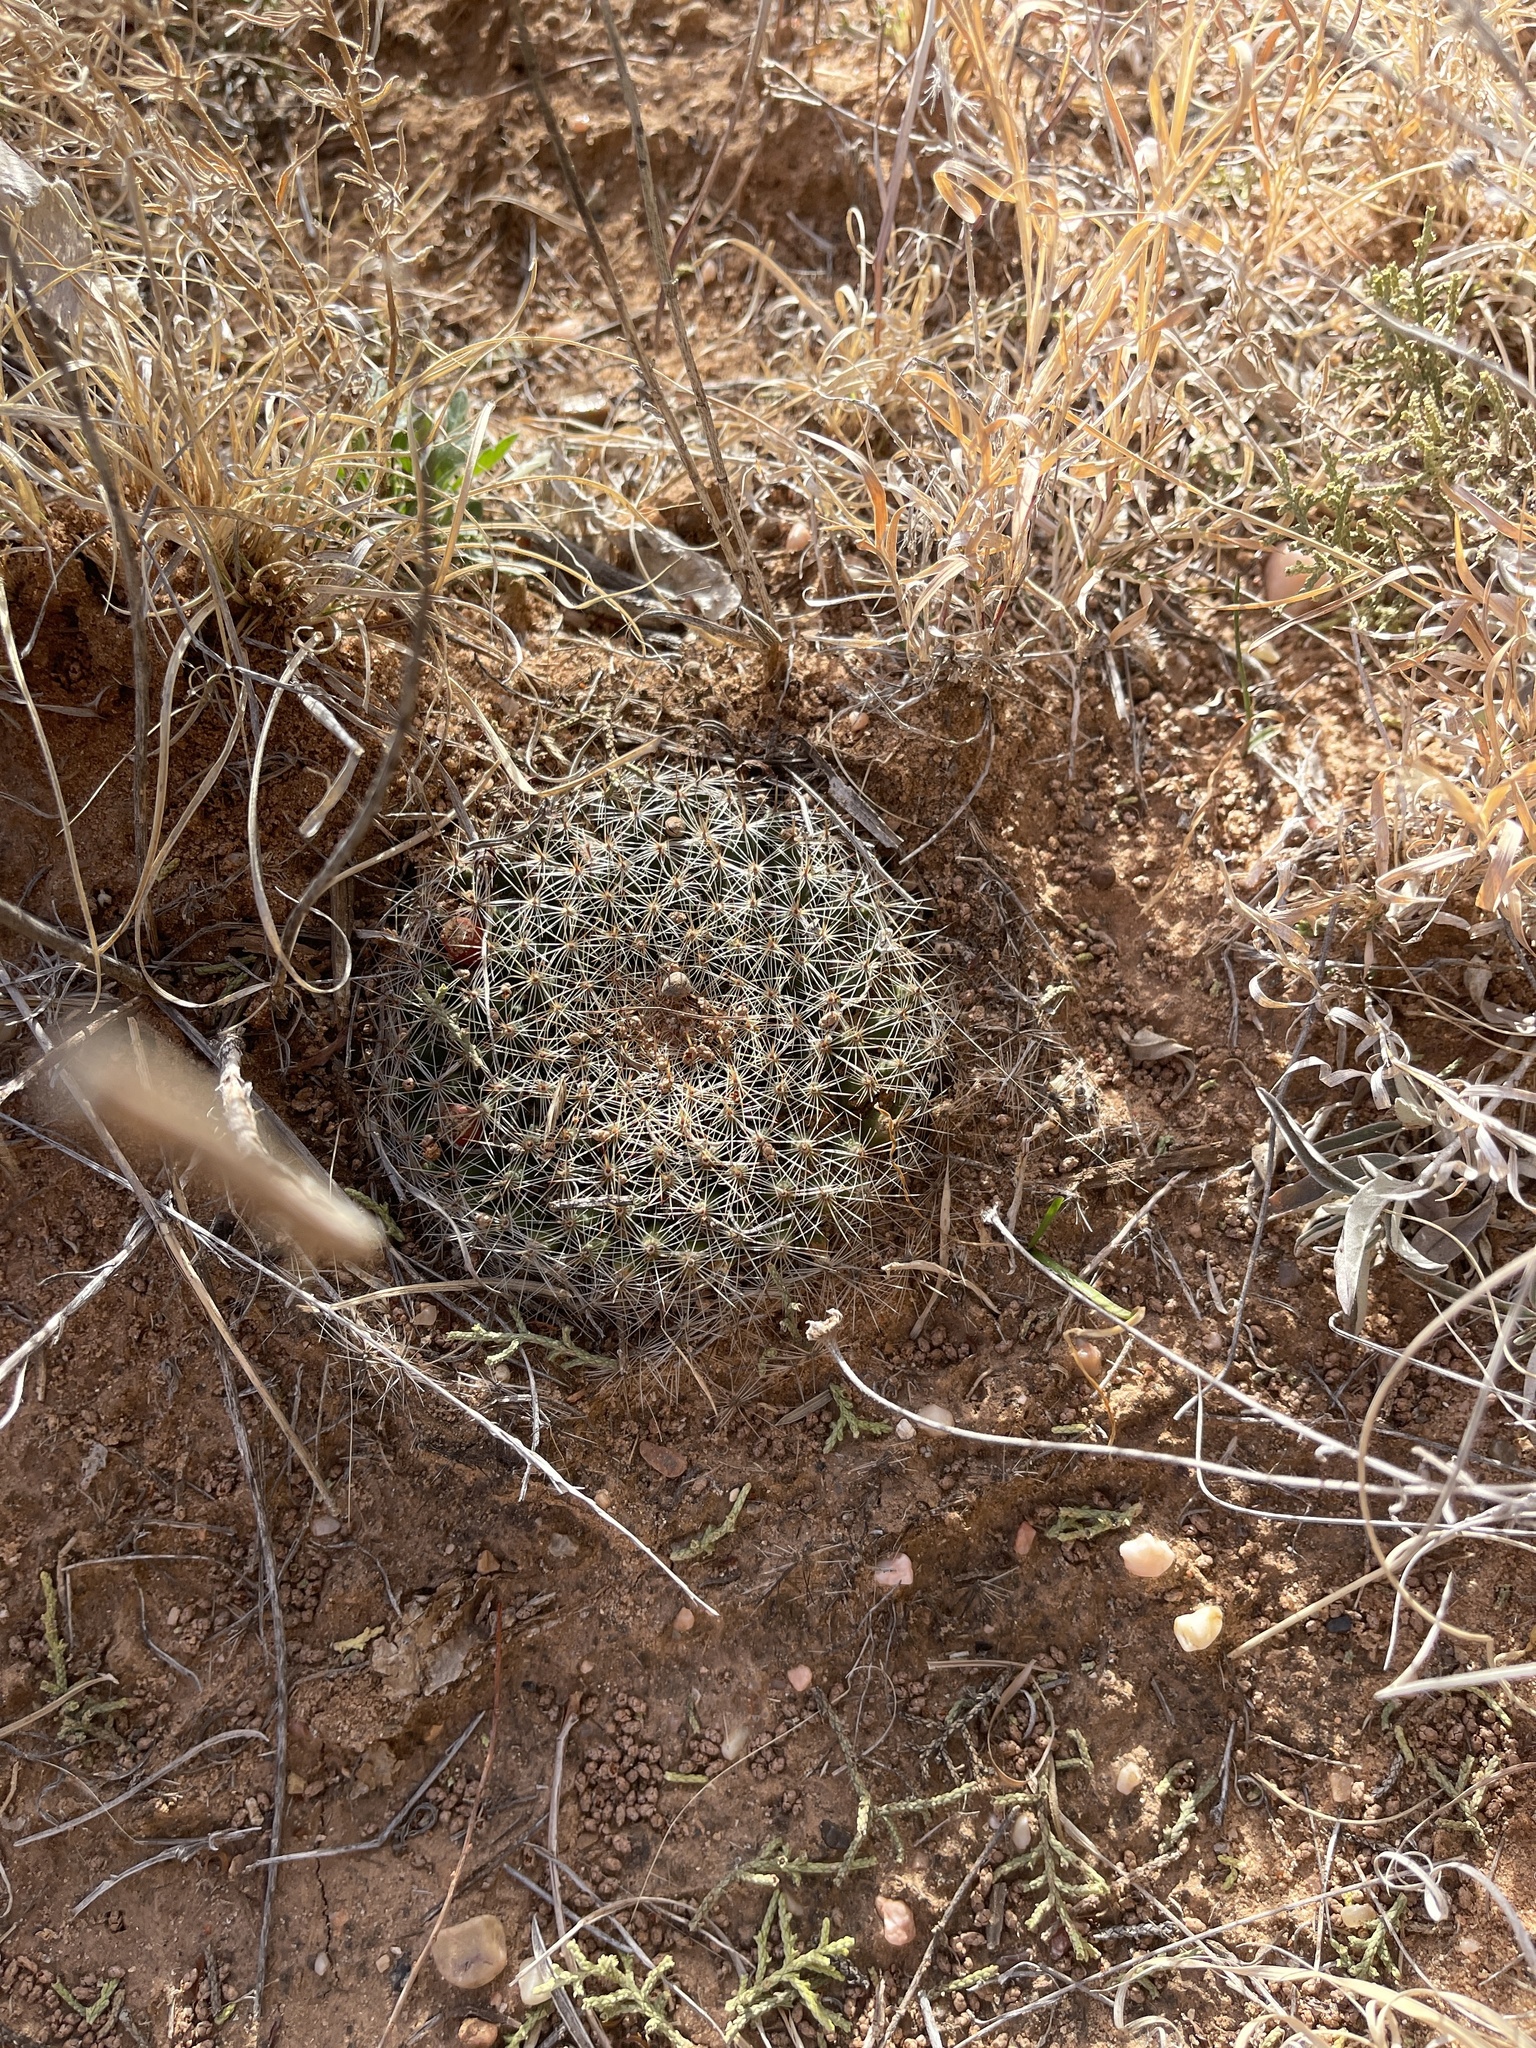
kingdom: Plantae
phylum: Tracheophyta
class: Magnoliopsida
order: Caryophyllales
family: Cactaceae
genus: Mammillaria
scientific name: Mammillaria heyderi
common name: Little nipple cactus
